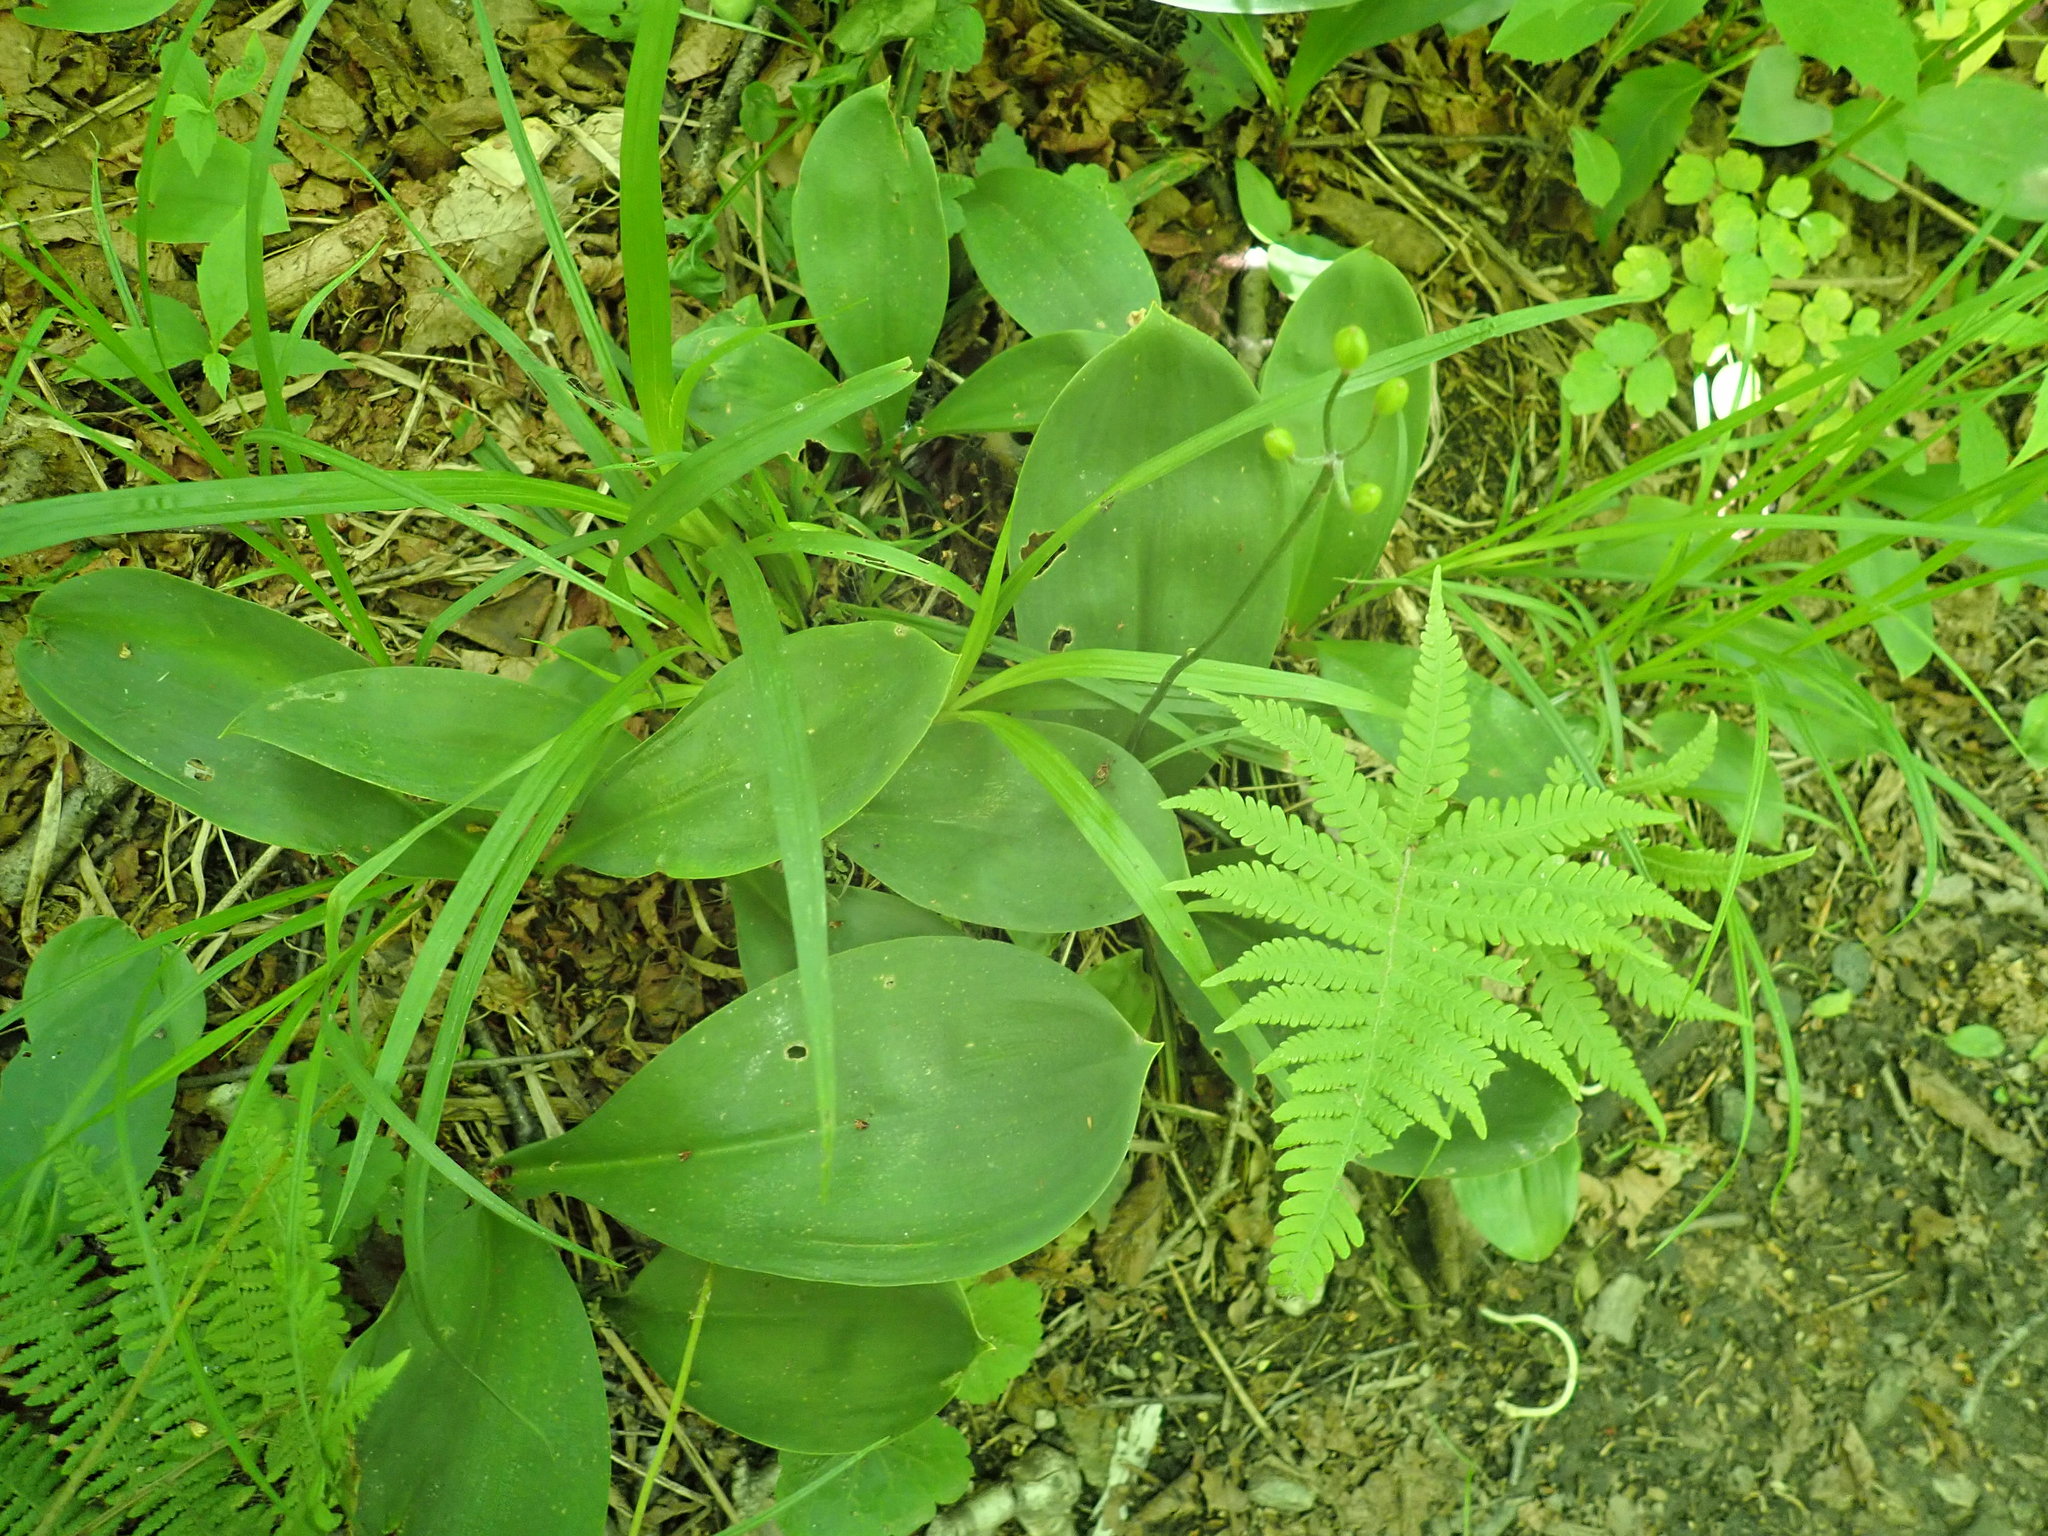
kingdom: Plantae
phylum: Tracheophyta
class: Liliopsida
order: Liliales
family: Liliaceae
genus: Clintonia
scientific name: Clintonia borealis
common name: Yellow clintonia
